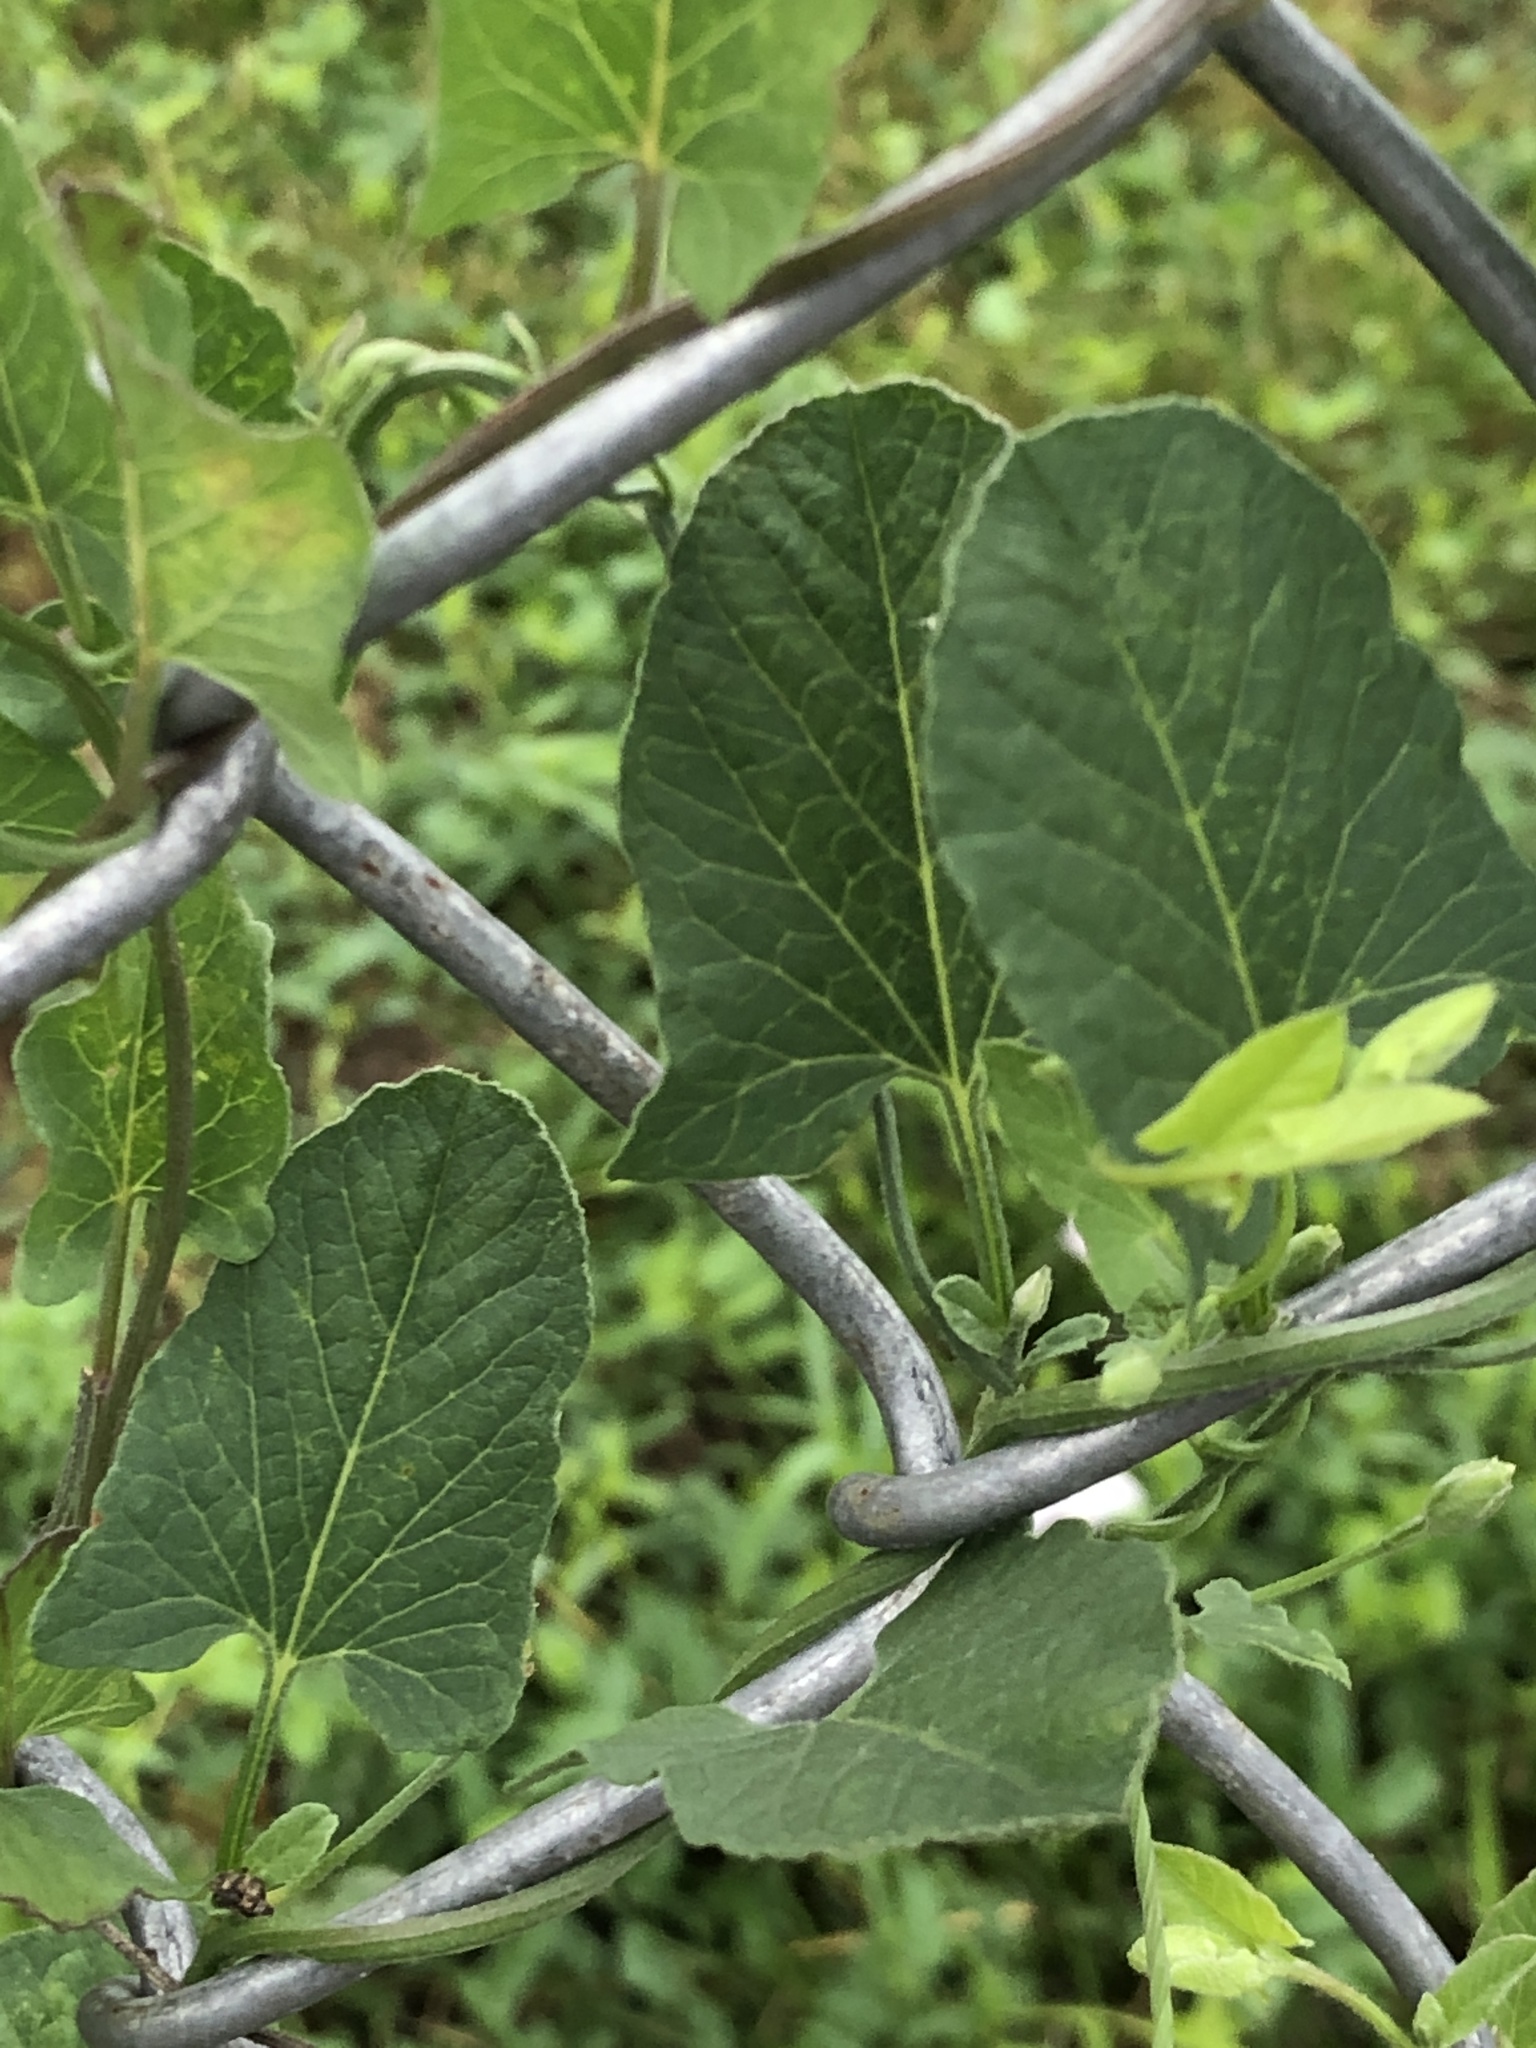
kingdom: Plantae
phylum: Tracheophyta
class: Magnoliopsida
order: Solanales
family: Convolvulaceae
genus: Convolvulus
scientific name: Convolvulus arvensis
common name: Field bindweed
